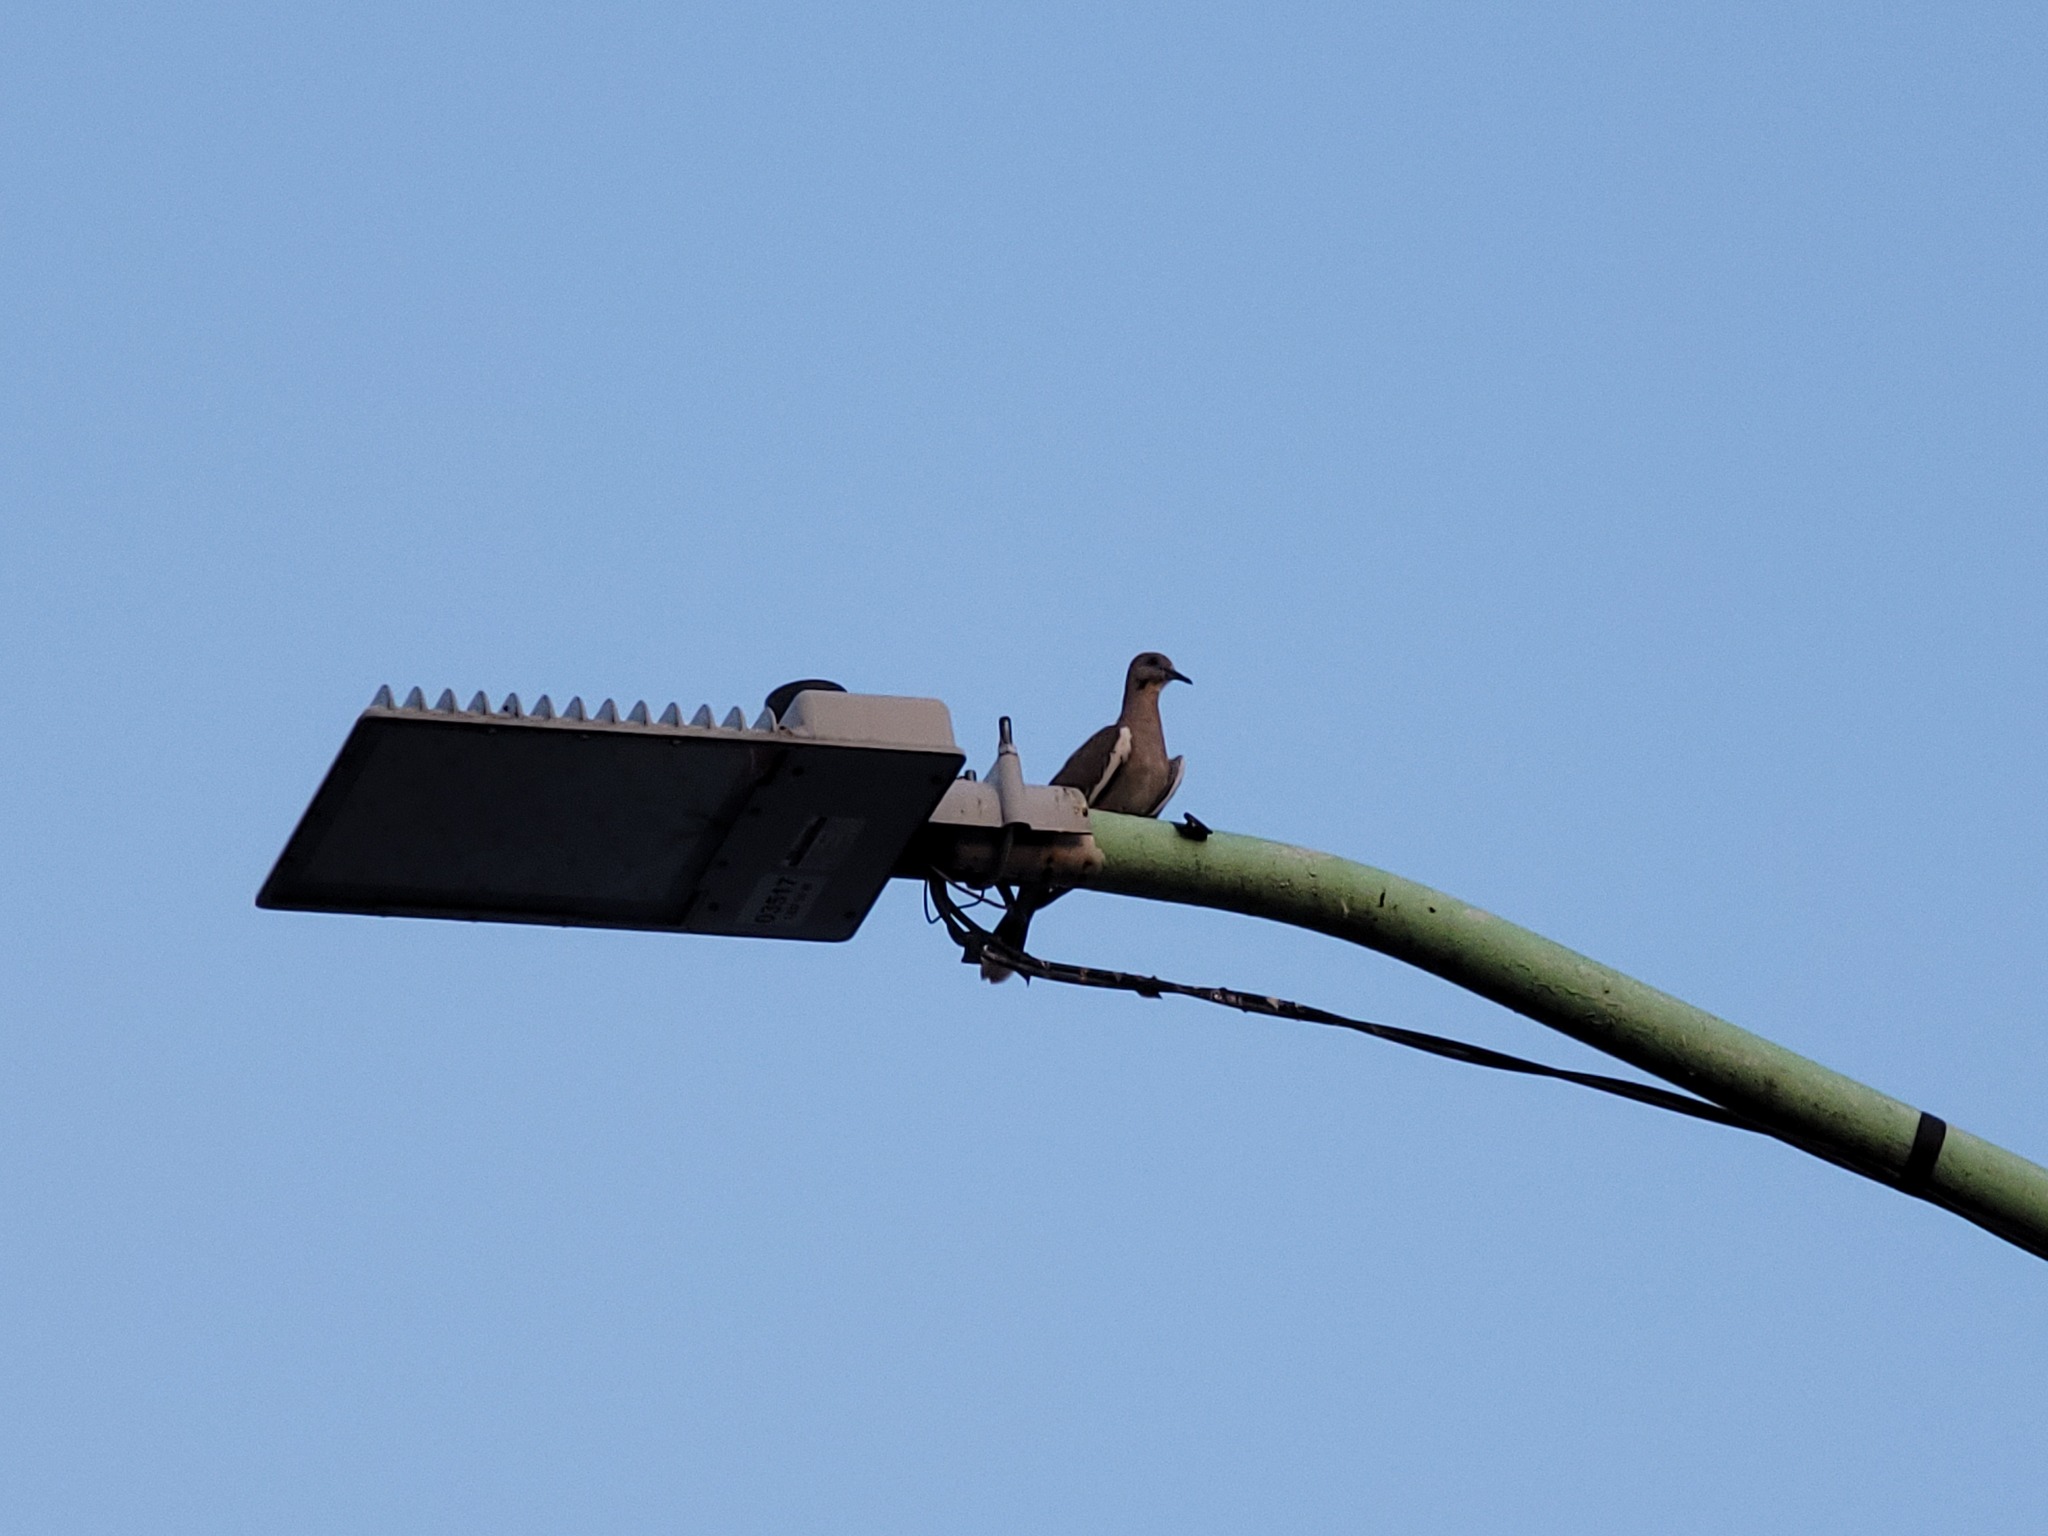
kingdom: Animalia
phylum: Chordata
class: Aves
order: Columbiformes
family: Columbidae
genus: Zenaida
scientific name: Zenaida asiatica
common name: White-winged dove
